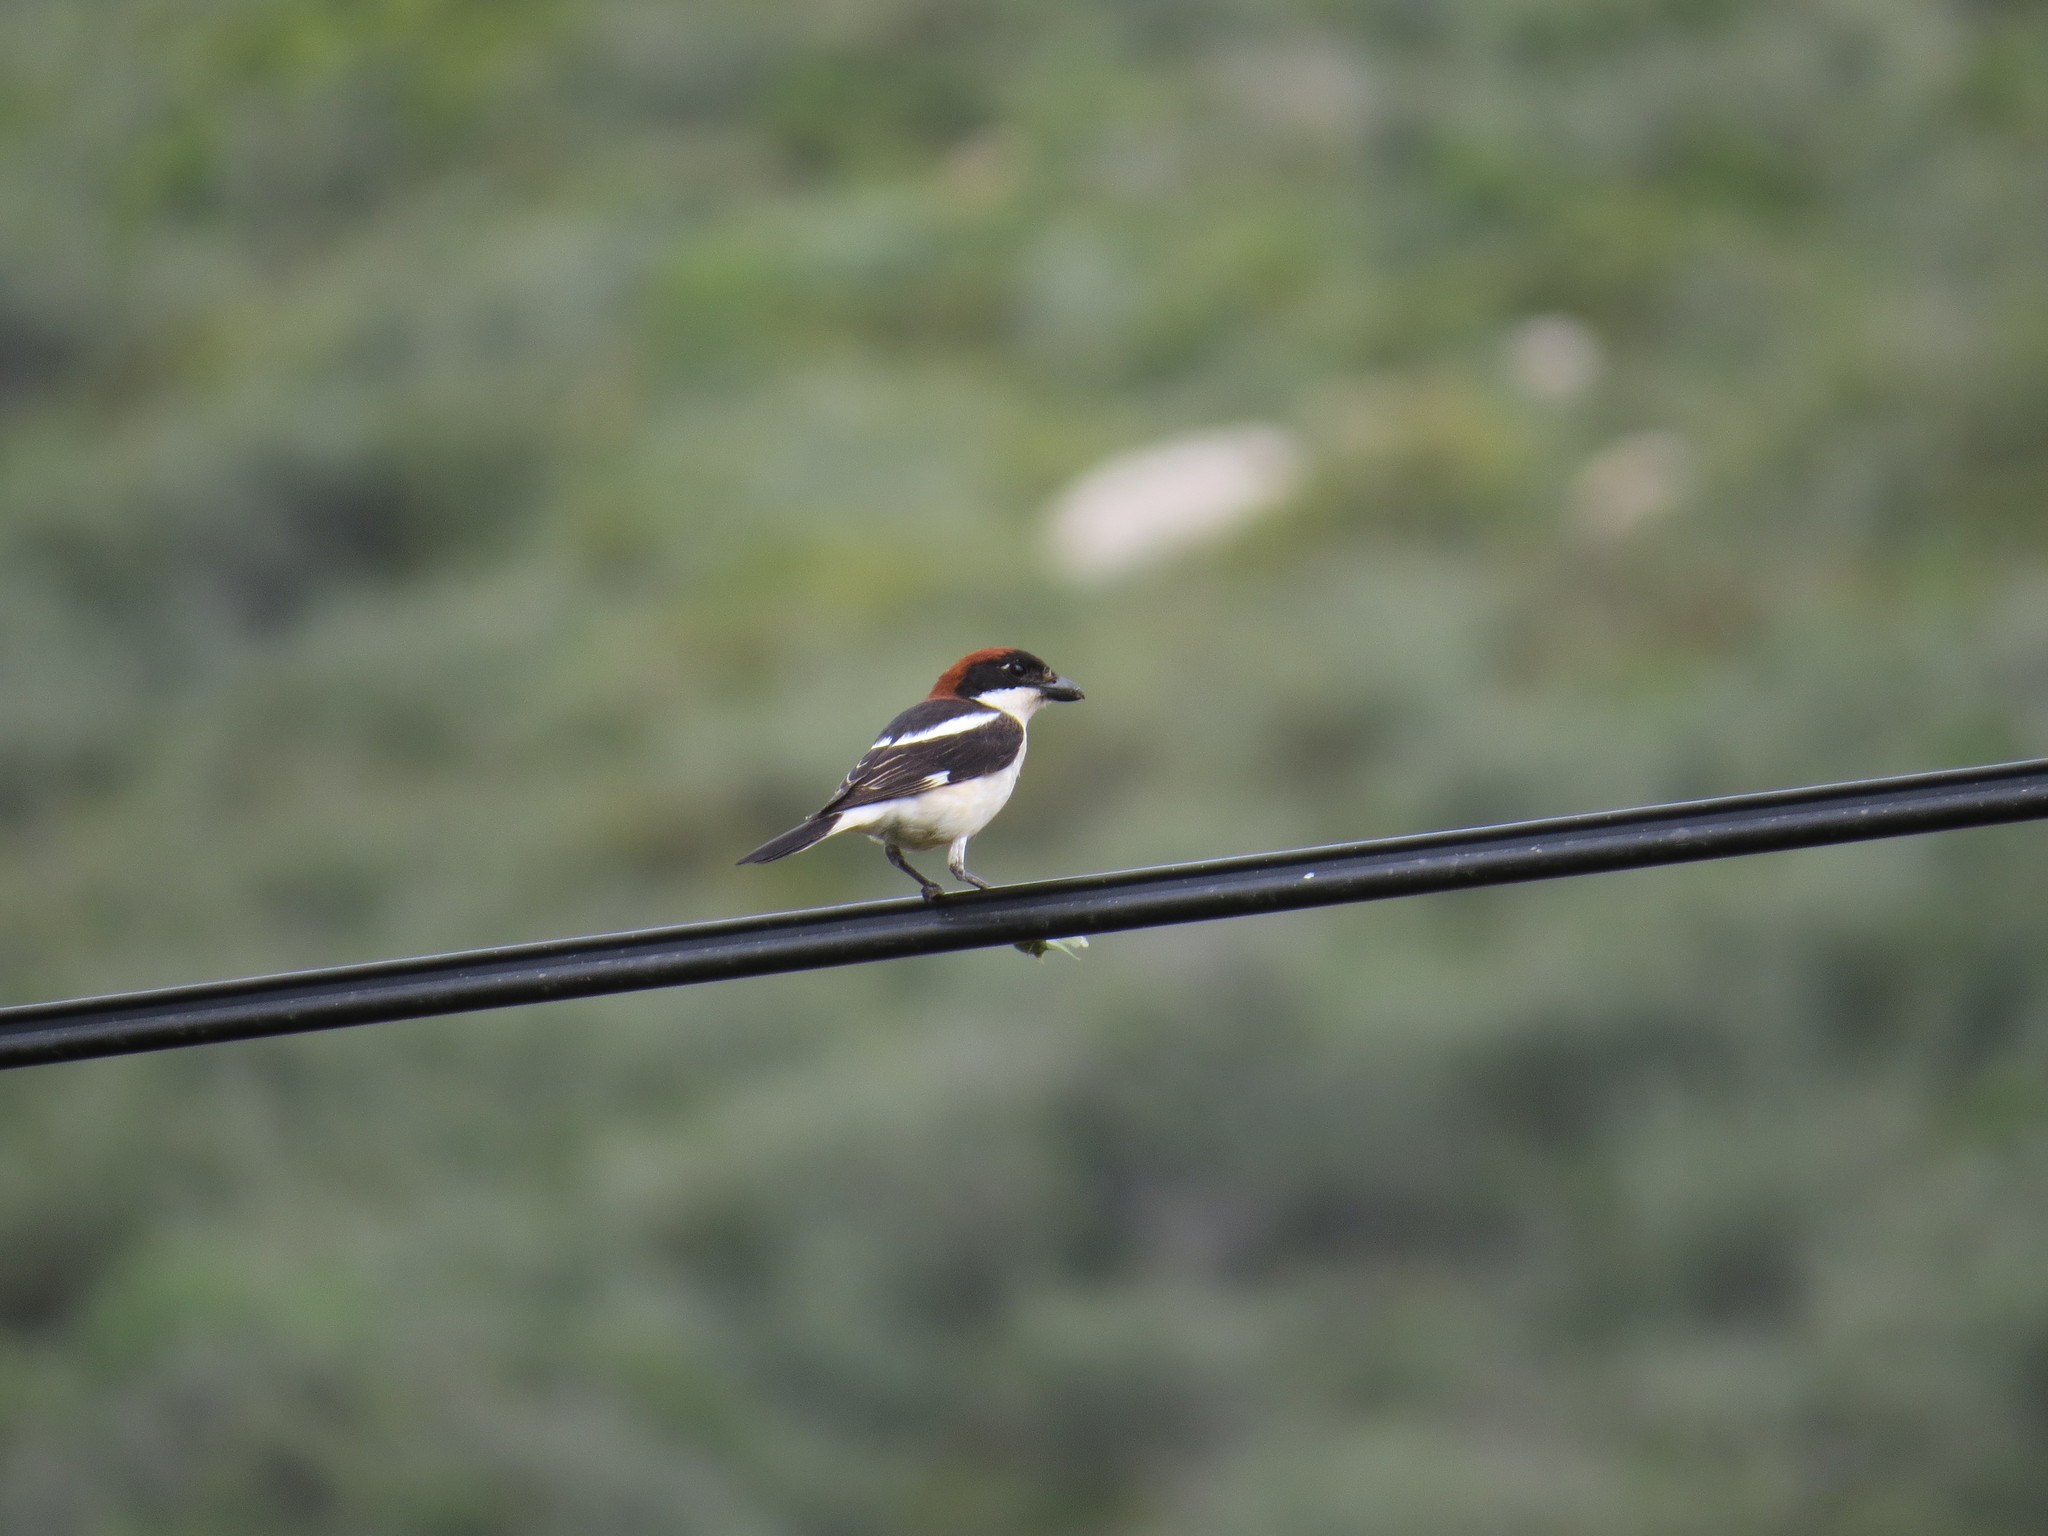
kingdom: Animalia
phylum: Chordata
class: Aves
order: Passeriformes
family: Laniidae
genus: Lanius
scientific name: Lanius senator
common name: Woodchat shrike
